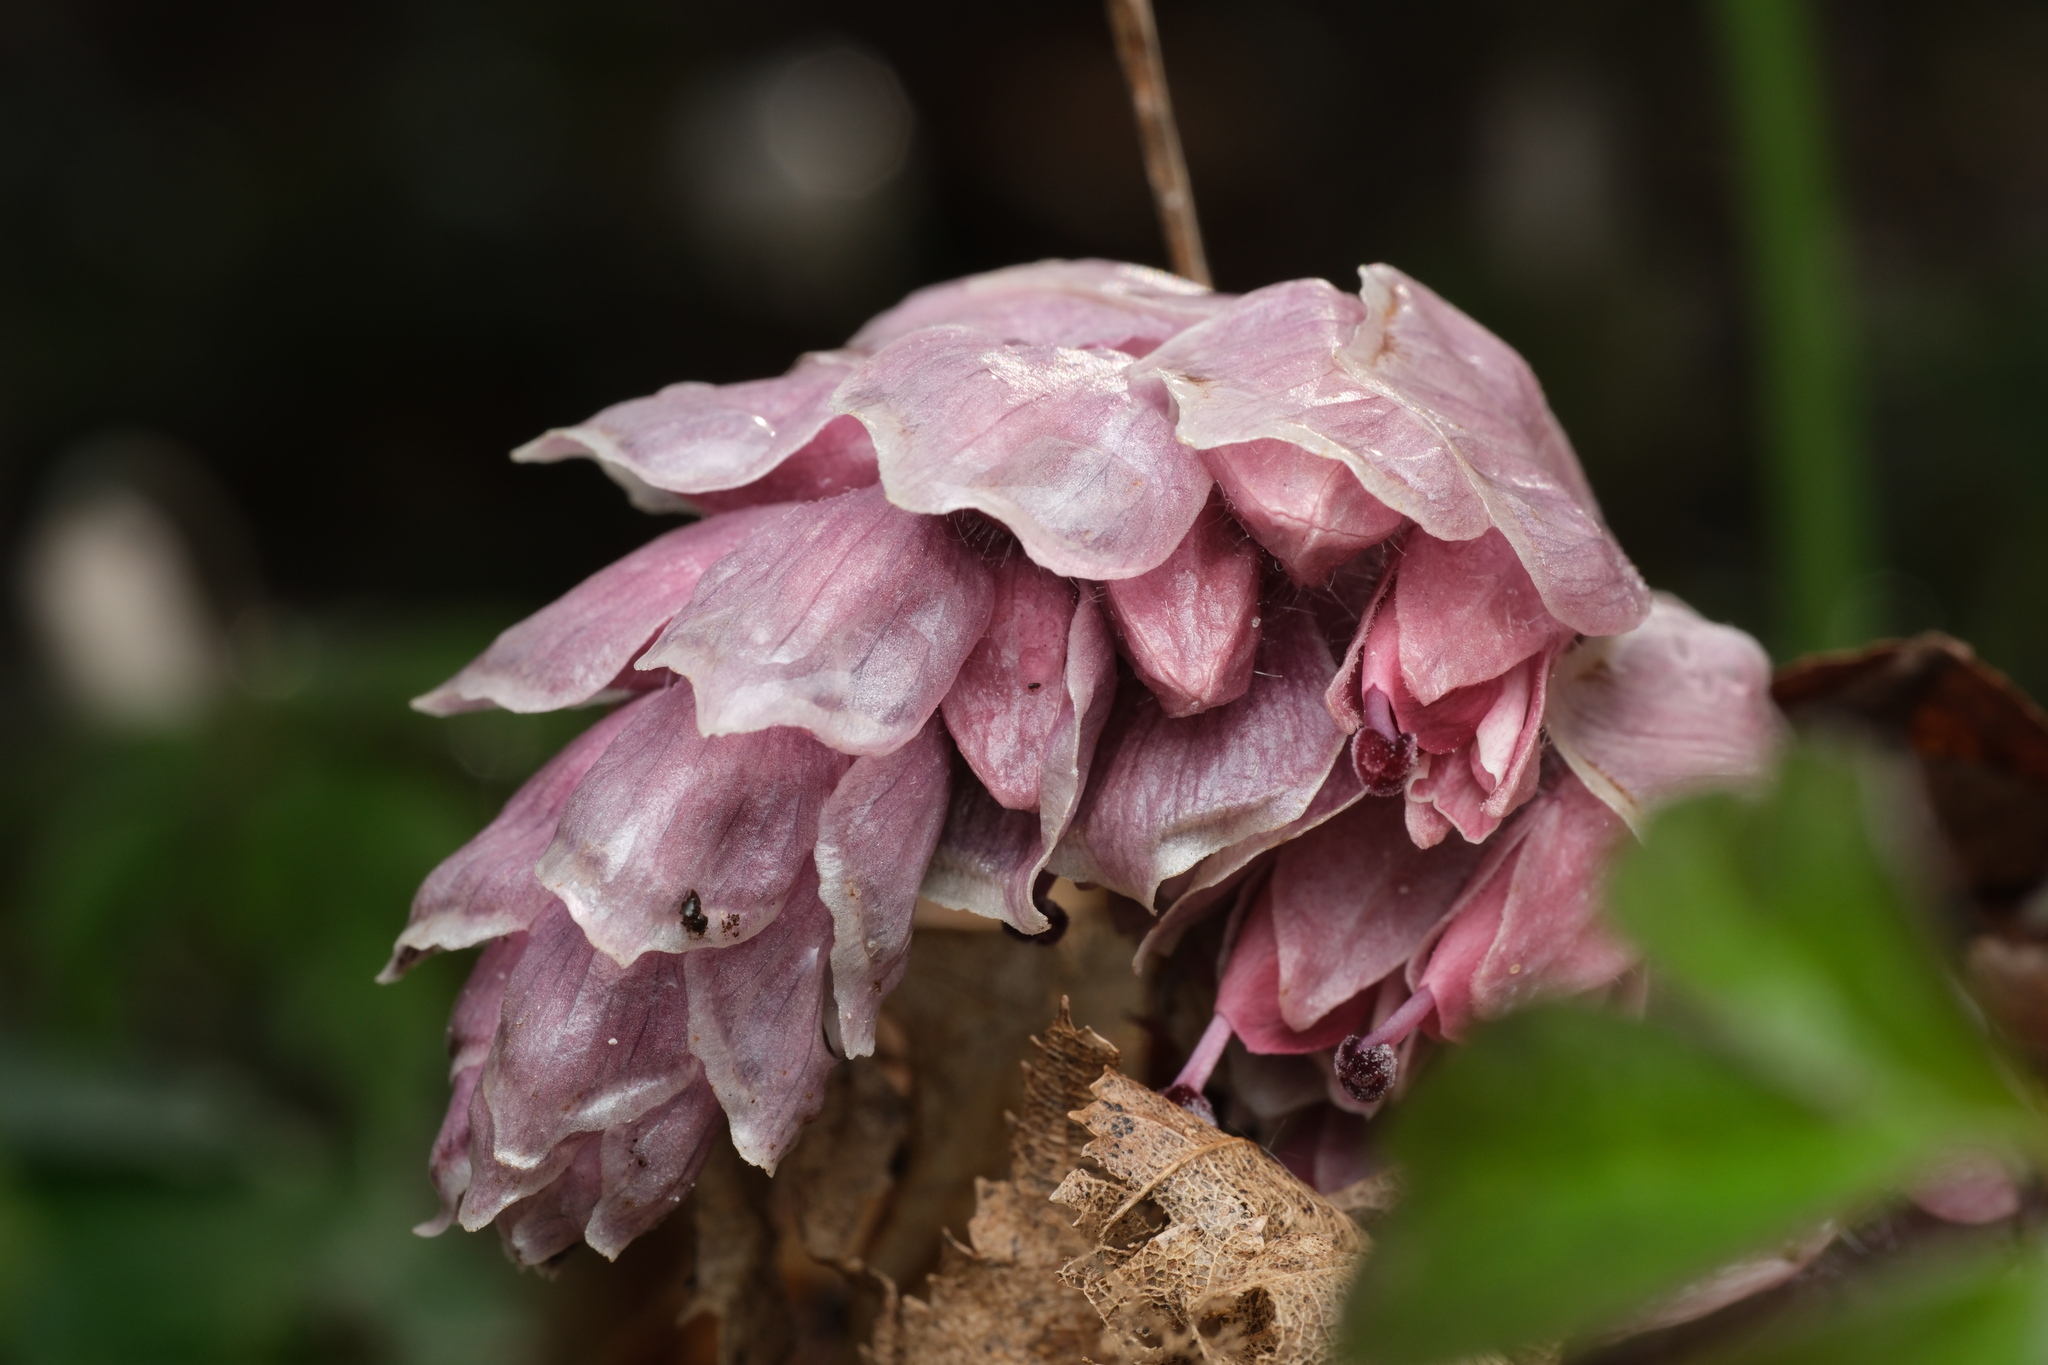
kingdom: Plantae
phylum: Tracheophyta
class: Magnoliopsida
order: Lamiales
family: Orobanchaceae
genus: Lathraea
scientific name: Lathraea squamaria
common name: Toothwort
